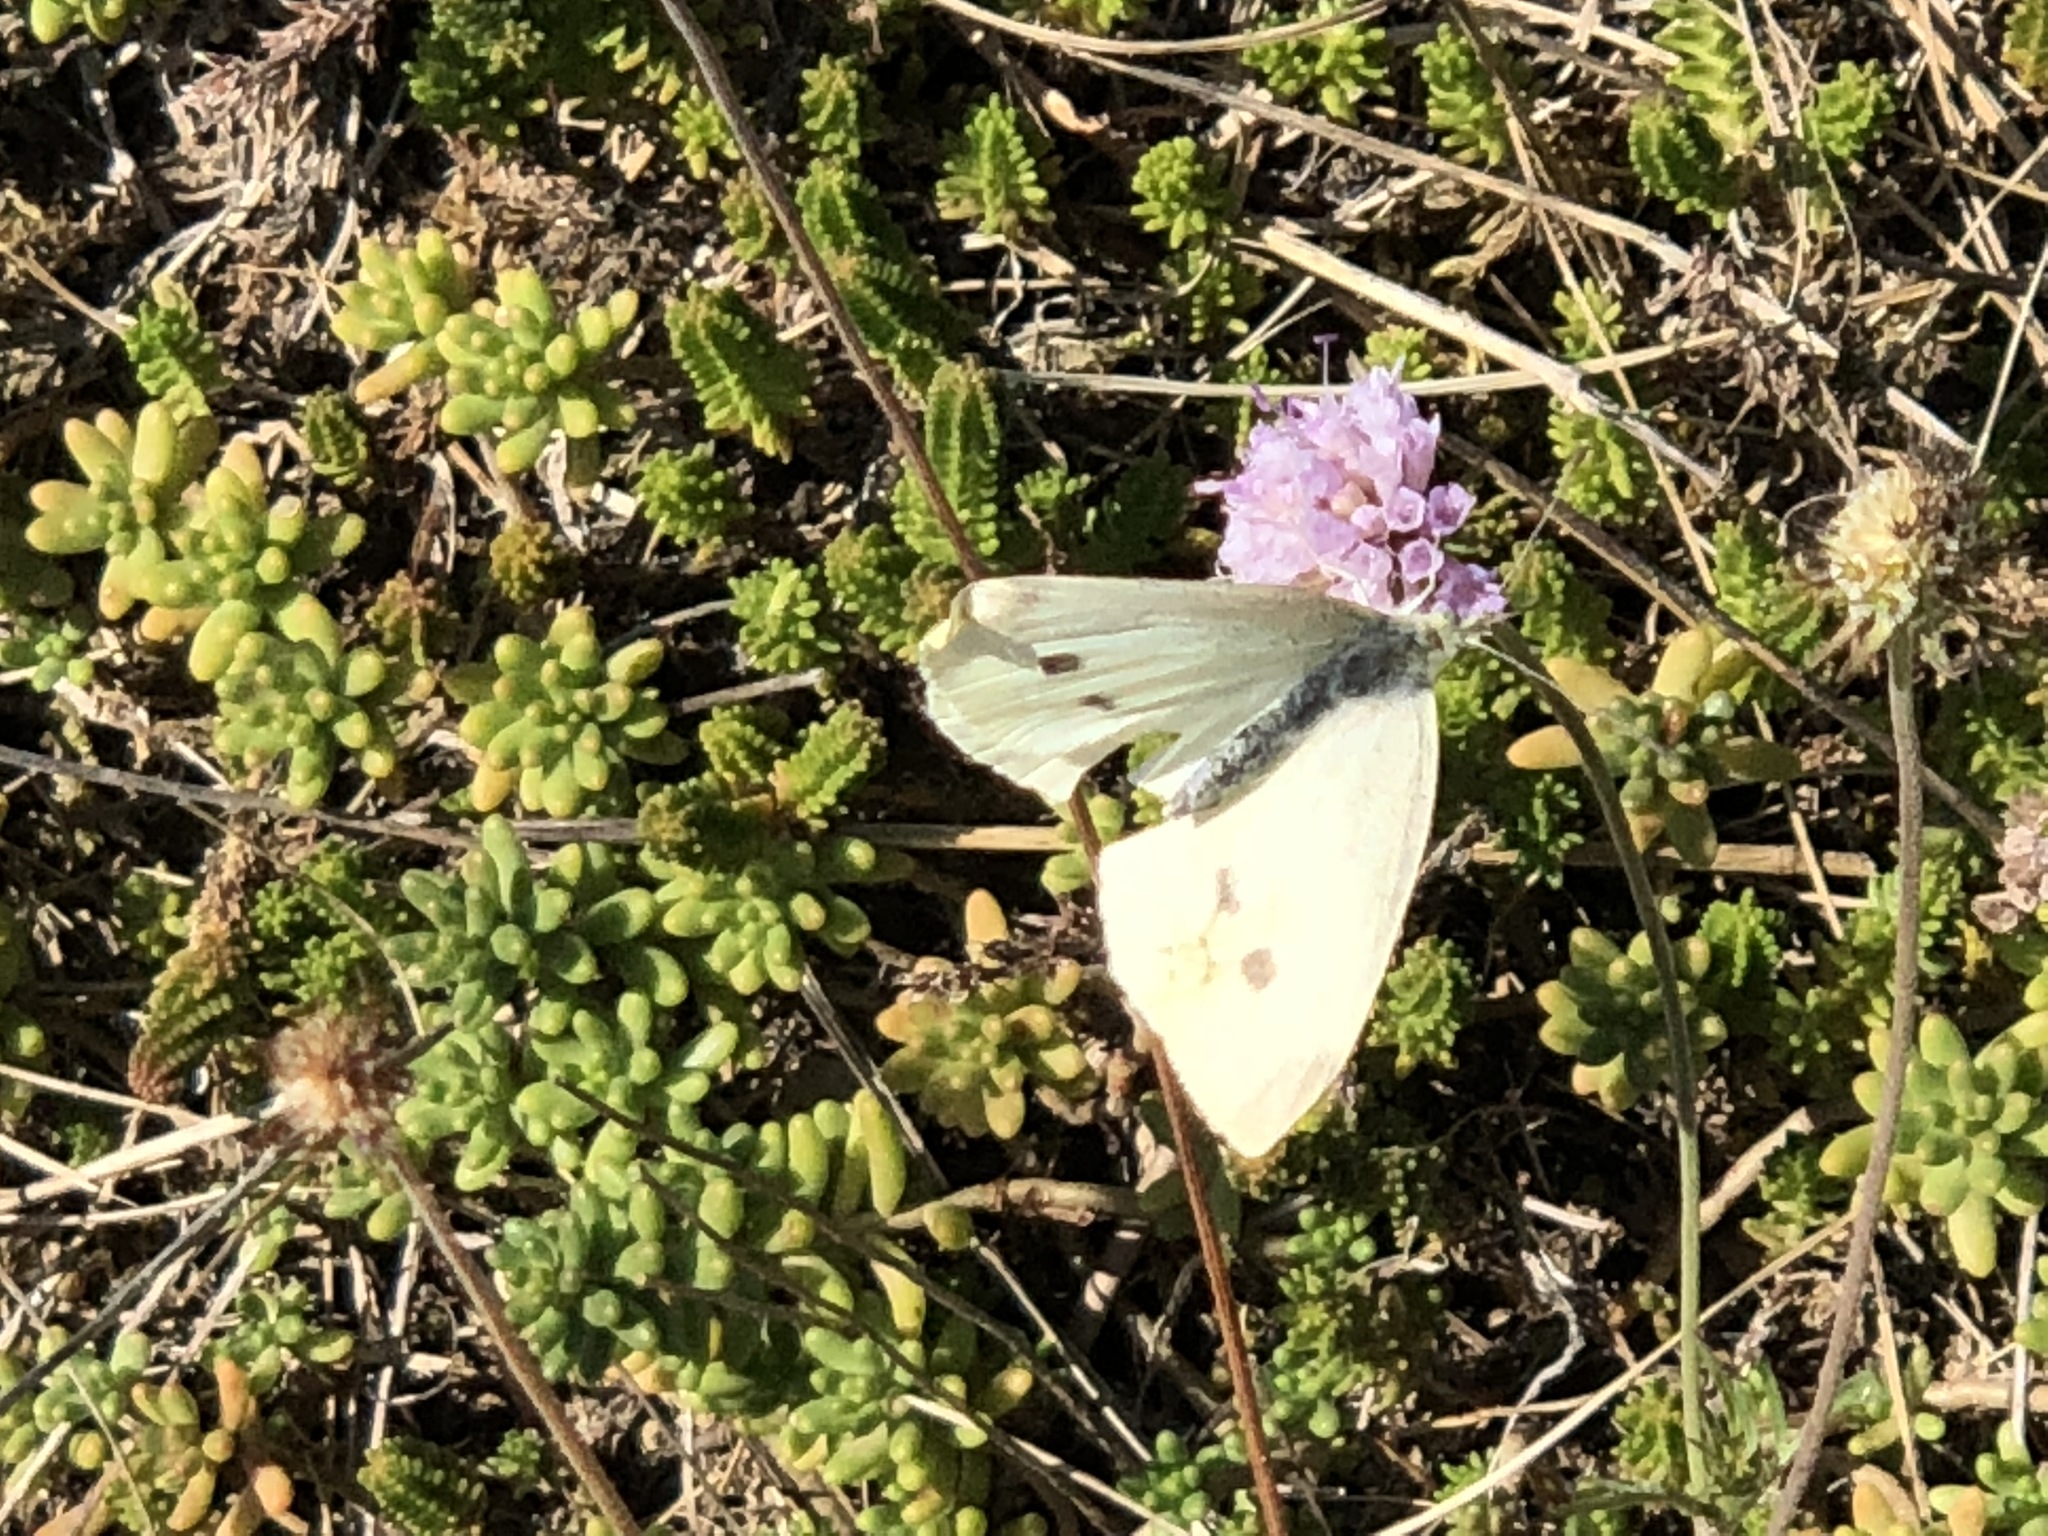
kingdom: Animalia
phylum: Arthropoda
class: Insecta
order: Lepidoptera
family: Pieridae
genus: Pieris
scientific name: Pieris rapae
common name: Small white
